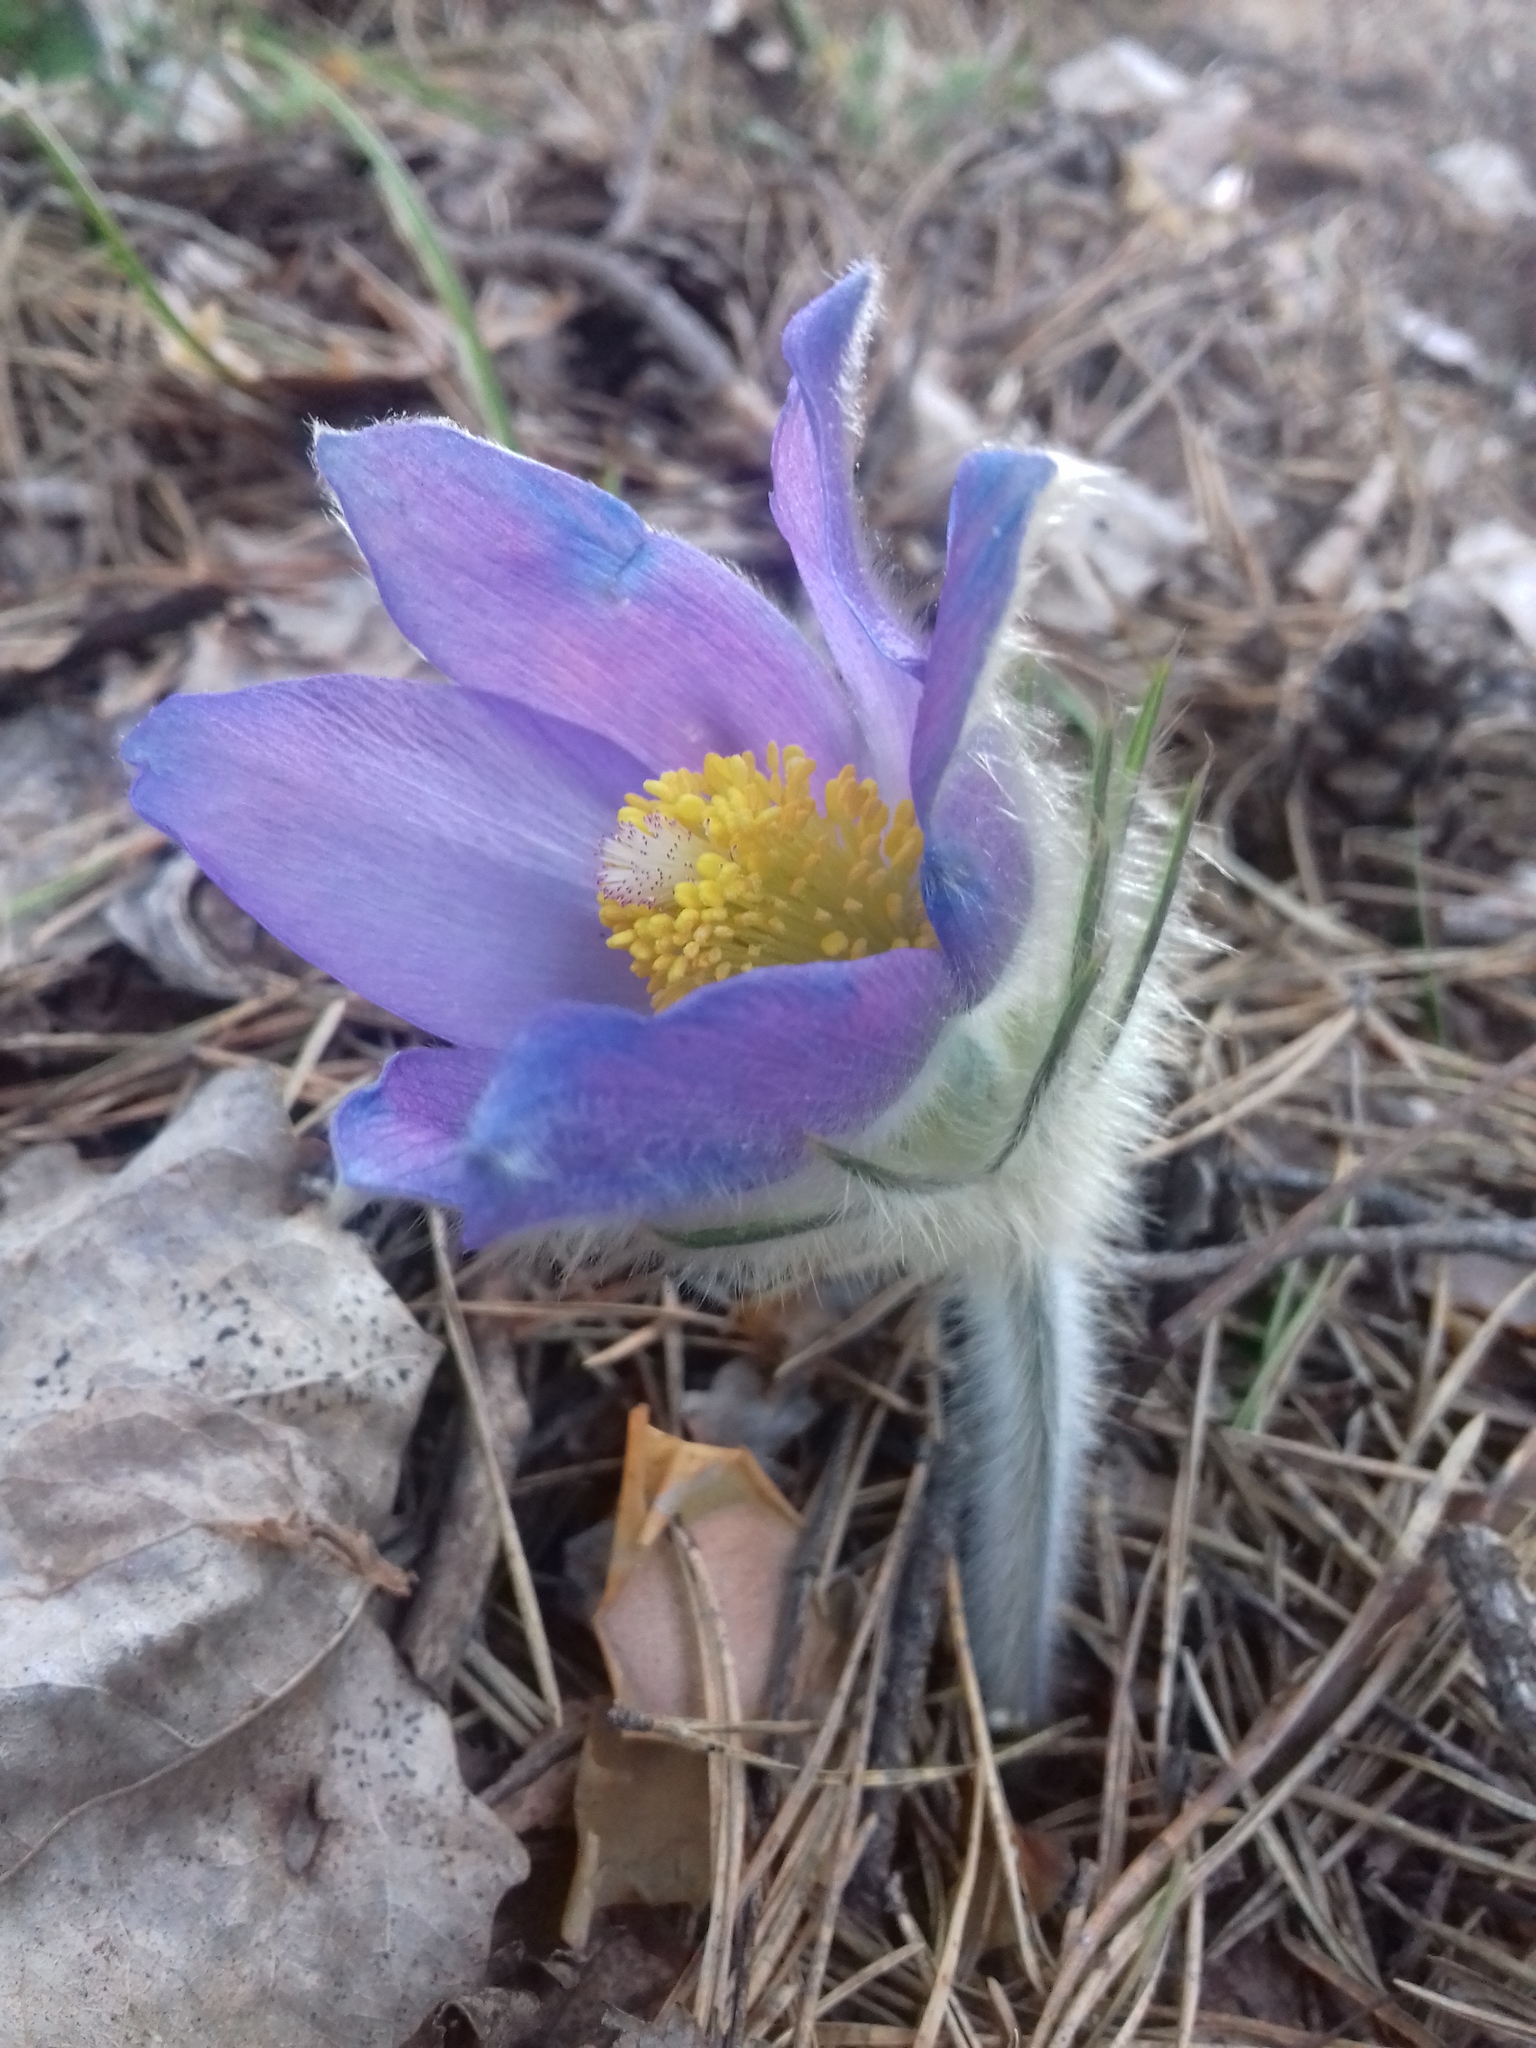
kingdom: Plantae
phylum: Tracheophyta
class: Magnoliopsida
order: Ranunculales
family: Ranunculaceae
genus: Pulsatilla
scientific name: Pulsatilla patens
